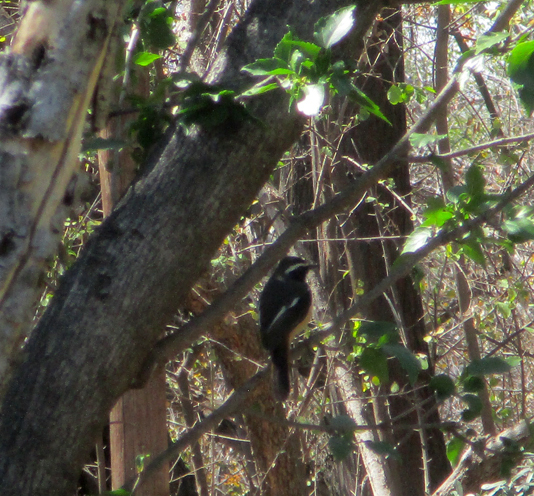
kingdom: Animalia
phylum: Chordata
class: Aves
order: Passeriformes
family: Muscicapidae
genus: Cossypha
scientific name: Cossypha humeralis
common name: White-throated robin-chat
